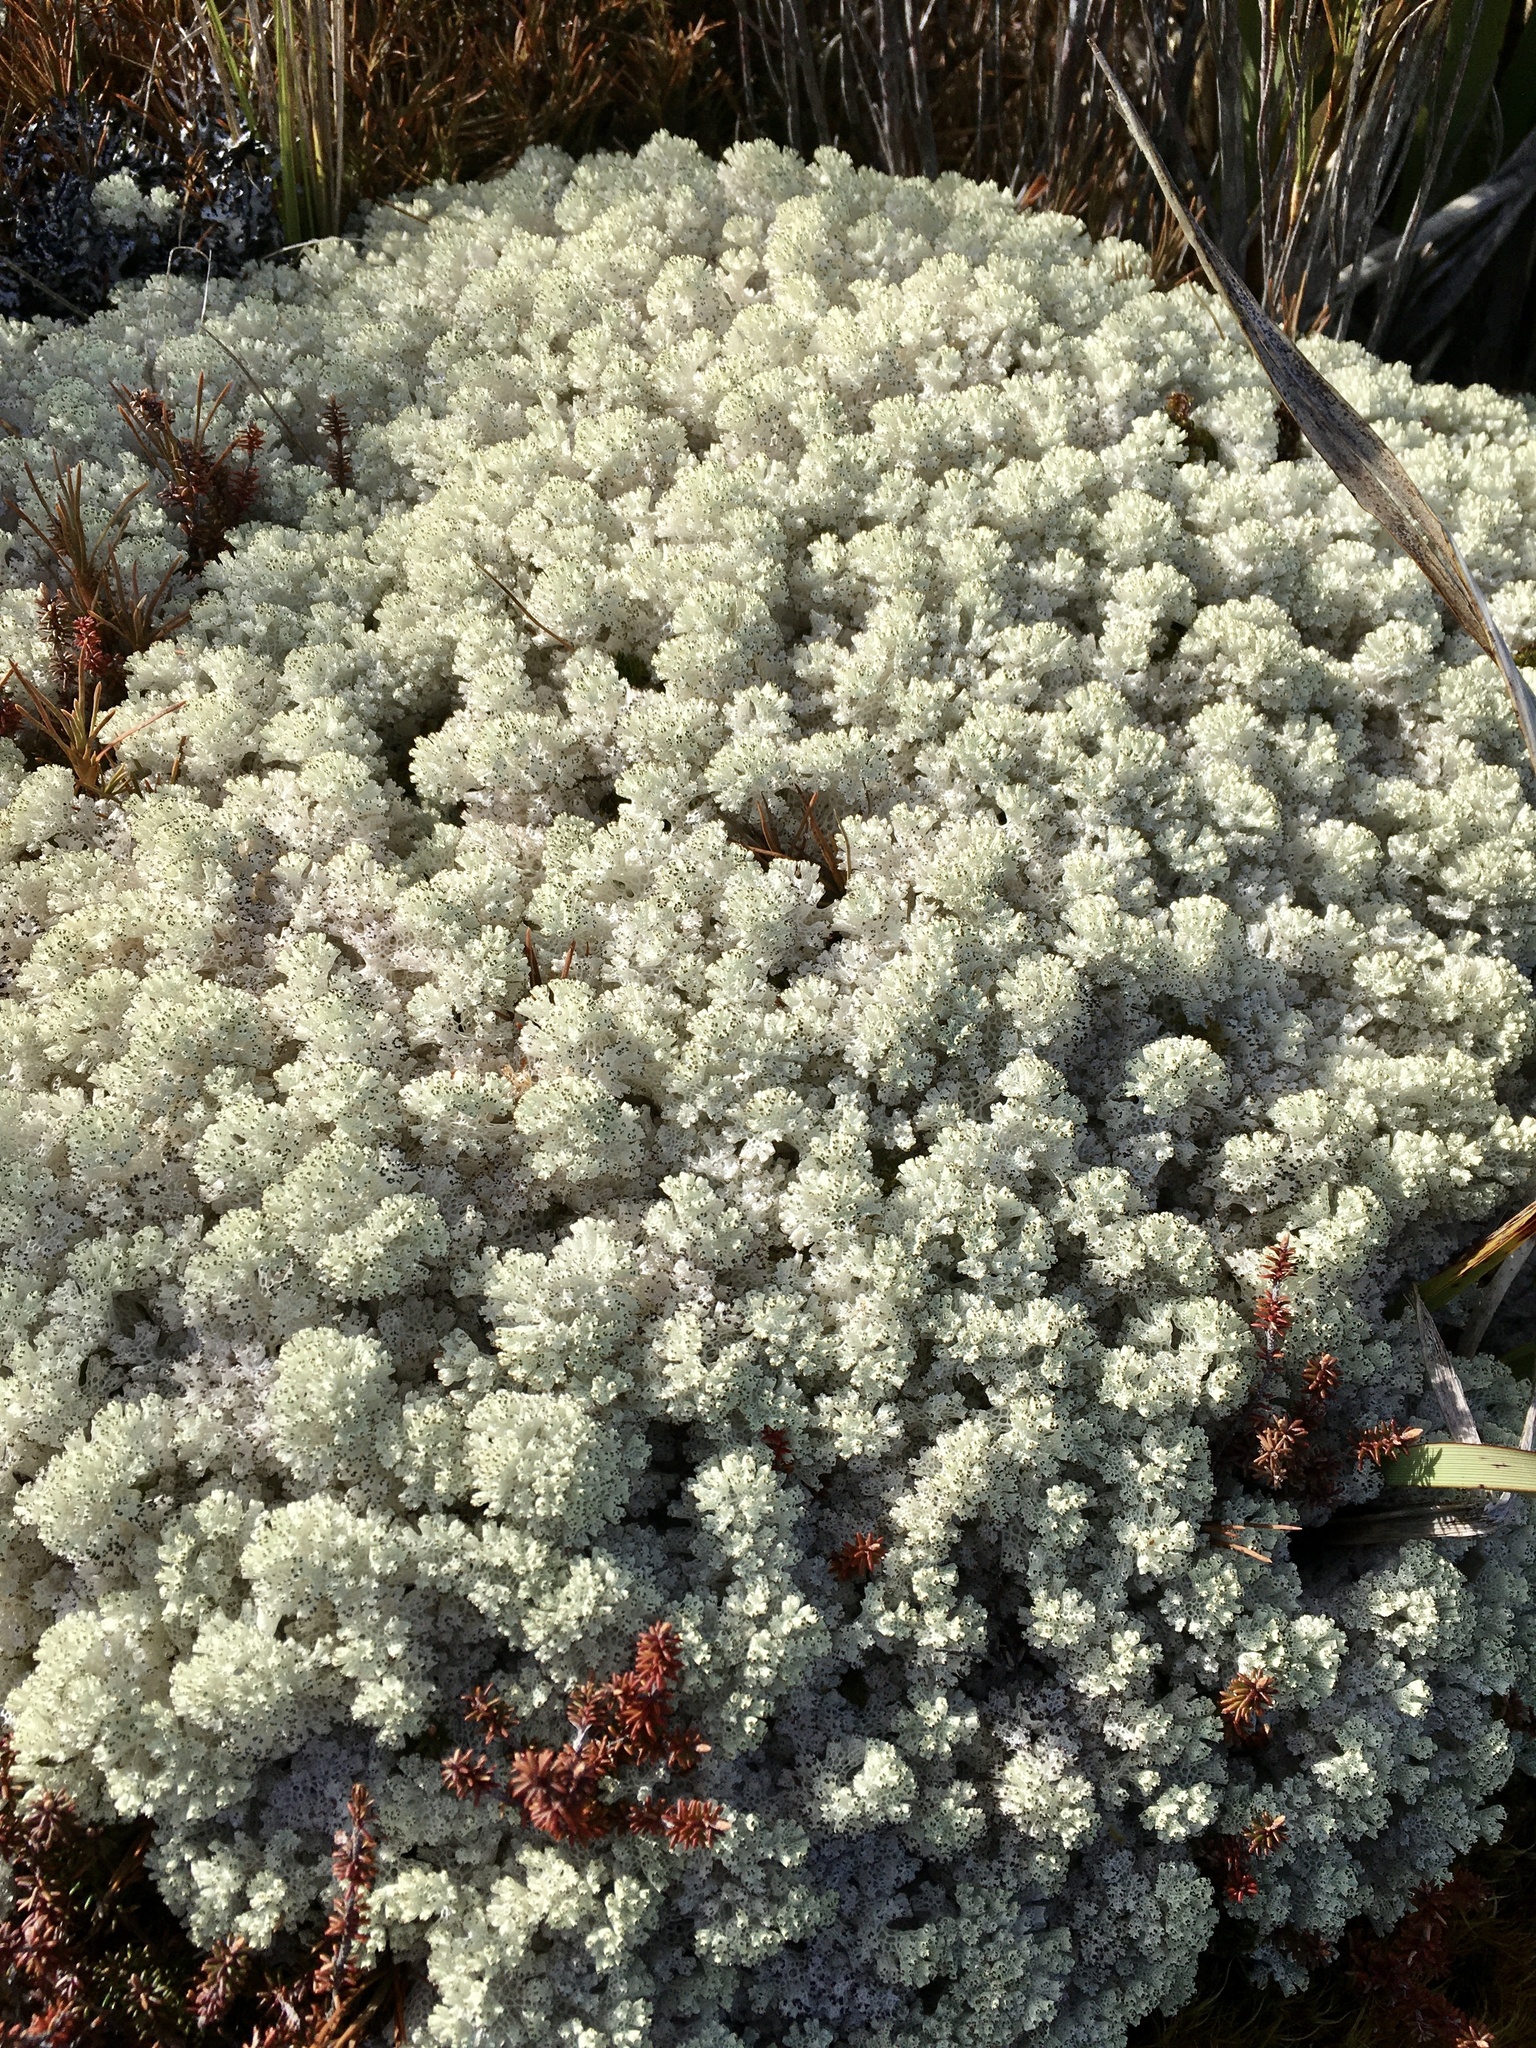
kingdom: Fungi
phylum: Ascomycota
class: Lecanoromycetes
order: Lecanorales
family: Cladoniaceae
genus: Pulchrocladia
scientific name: Pulchrocladia retipora
